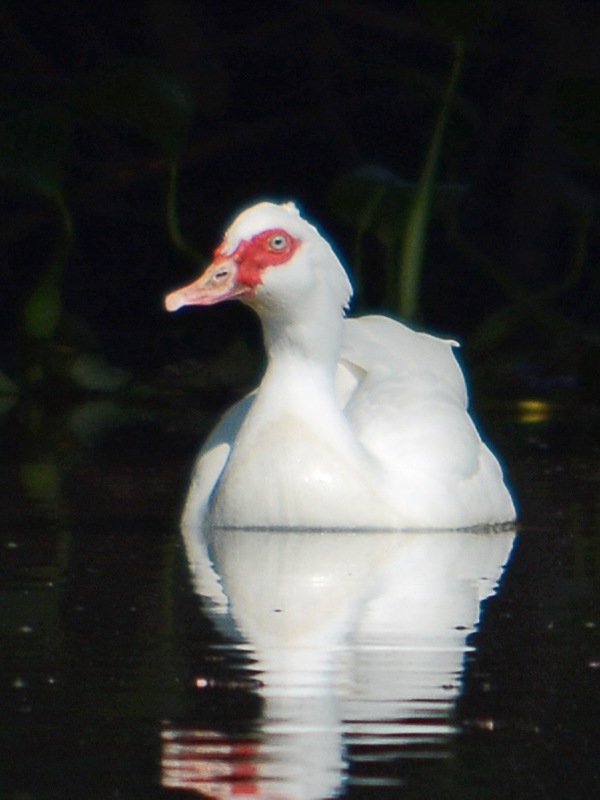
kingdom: Animalia
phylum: Chordata
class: Aves
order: Anseriformes
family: Anatidae
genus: Cairina
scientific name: Cairina moschata
